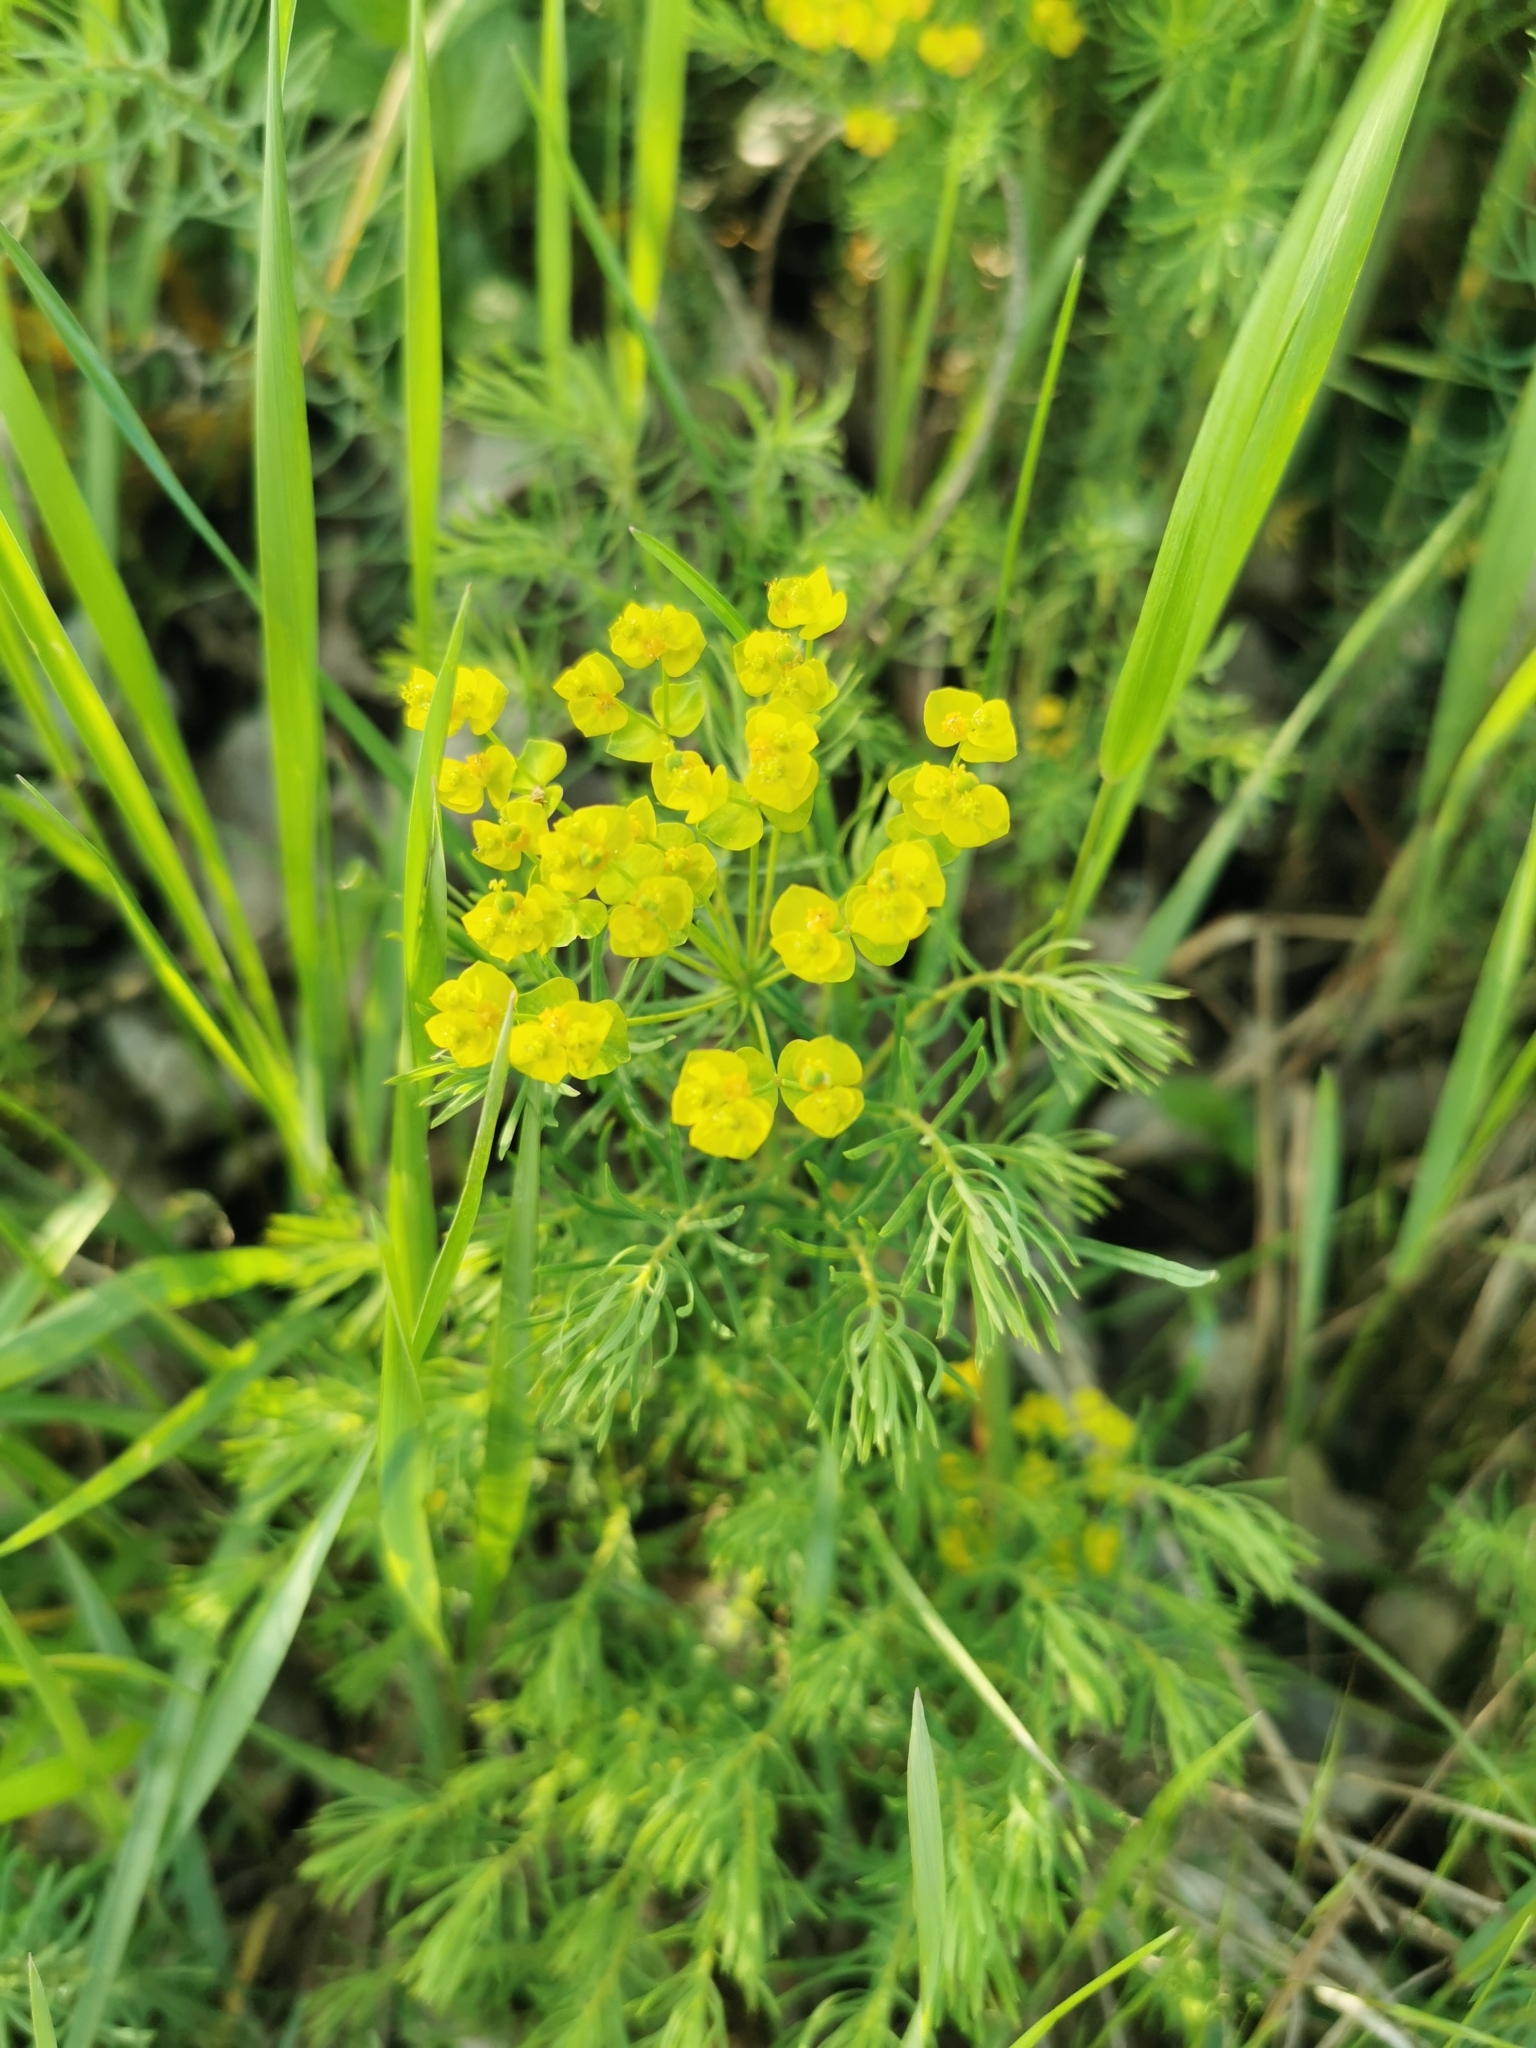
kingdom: Plantae
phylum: Tracheophyta
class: Magnoliopsida
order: Malpighiales
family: Euphorbiaceae
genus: Euphorbia
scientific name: Euphorbia cyparissias
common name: Cypress spurge
